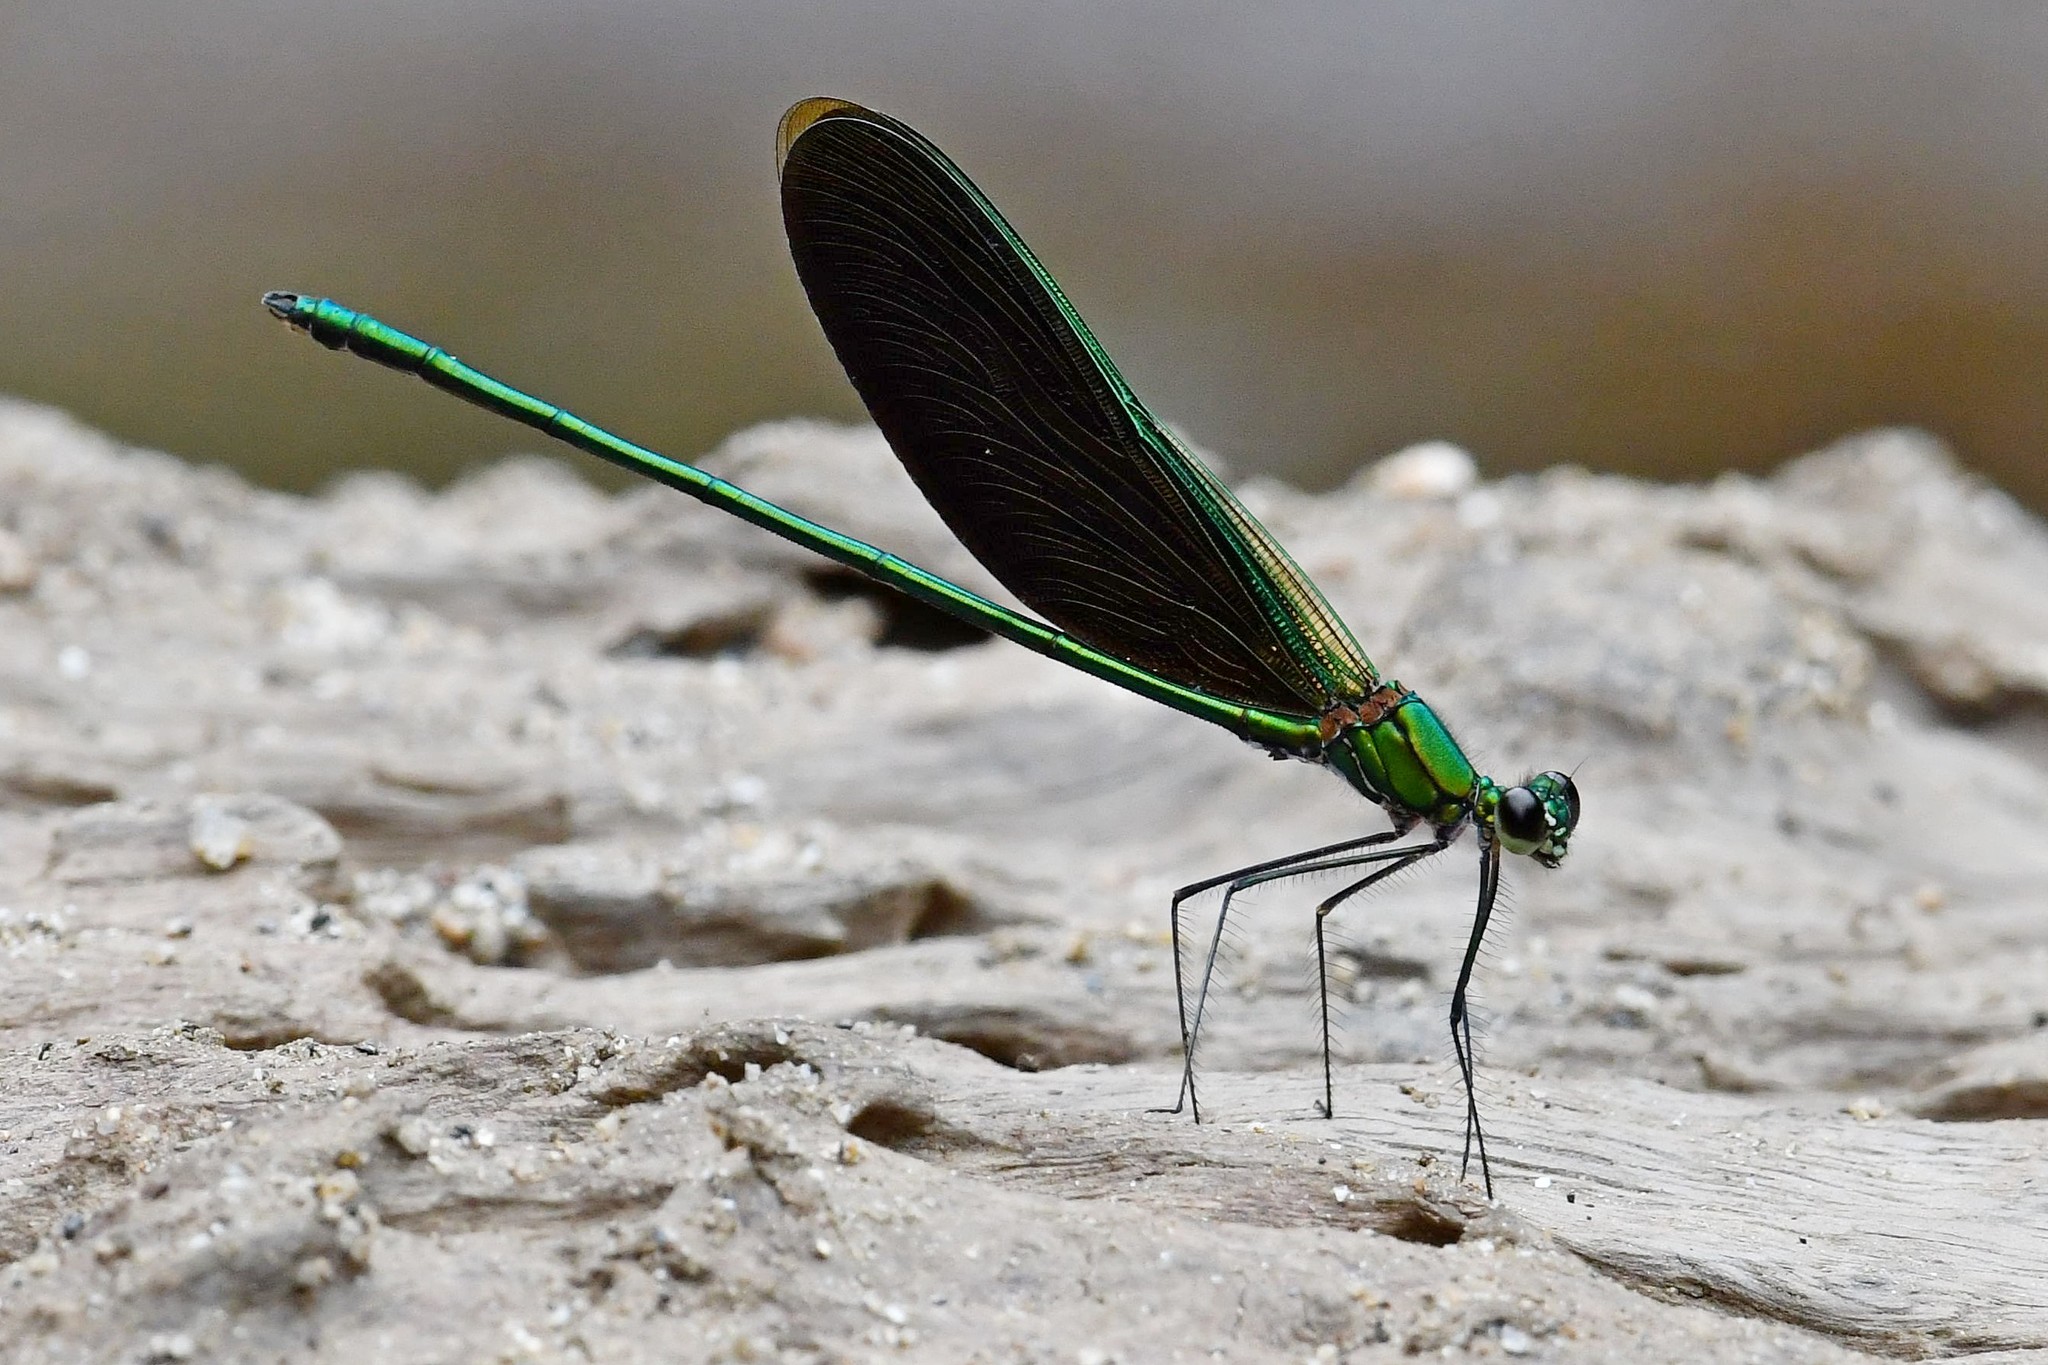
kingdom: Animalia
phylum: Arthropoda
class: Insecta
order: Odonata
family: Calopterygidae
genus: Neurobasis
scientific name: Neurobasis chinensis
